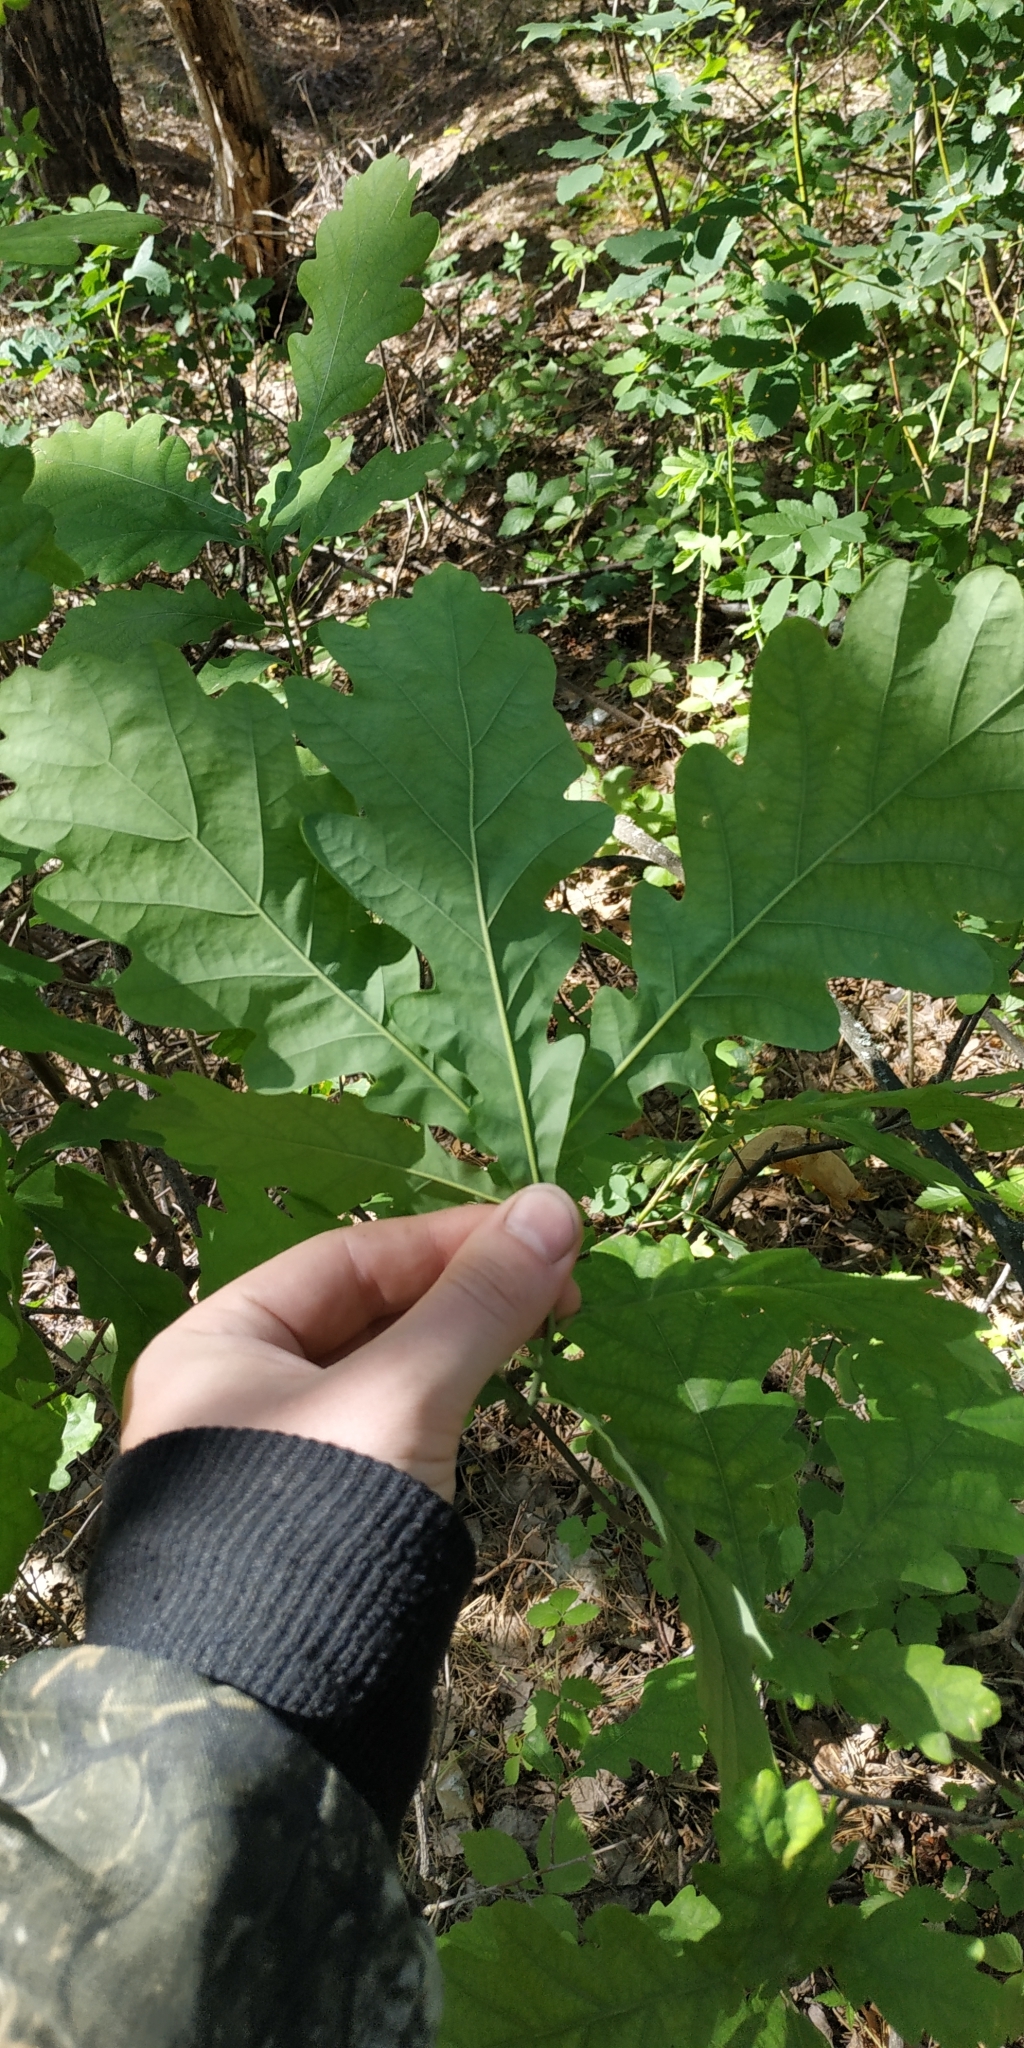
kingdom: Plantae
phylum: Tracheophyta
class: Magnoliopsida
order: Fagales
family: Fagaceae
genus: Quercus
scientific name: Quercus robur
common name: Pedunculate oak
